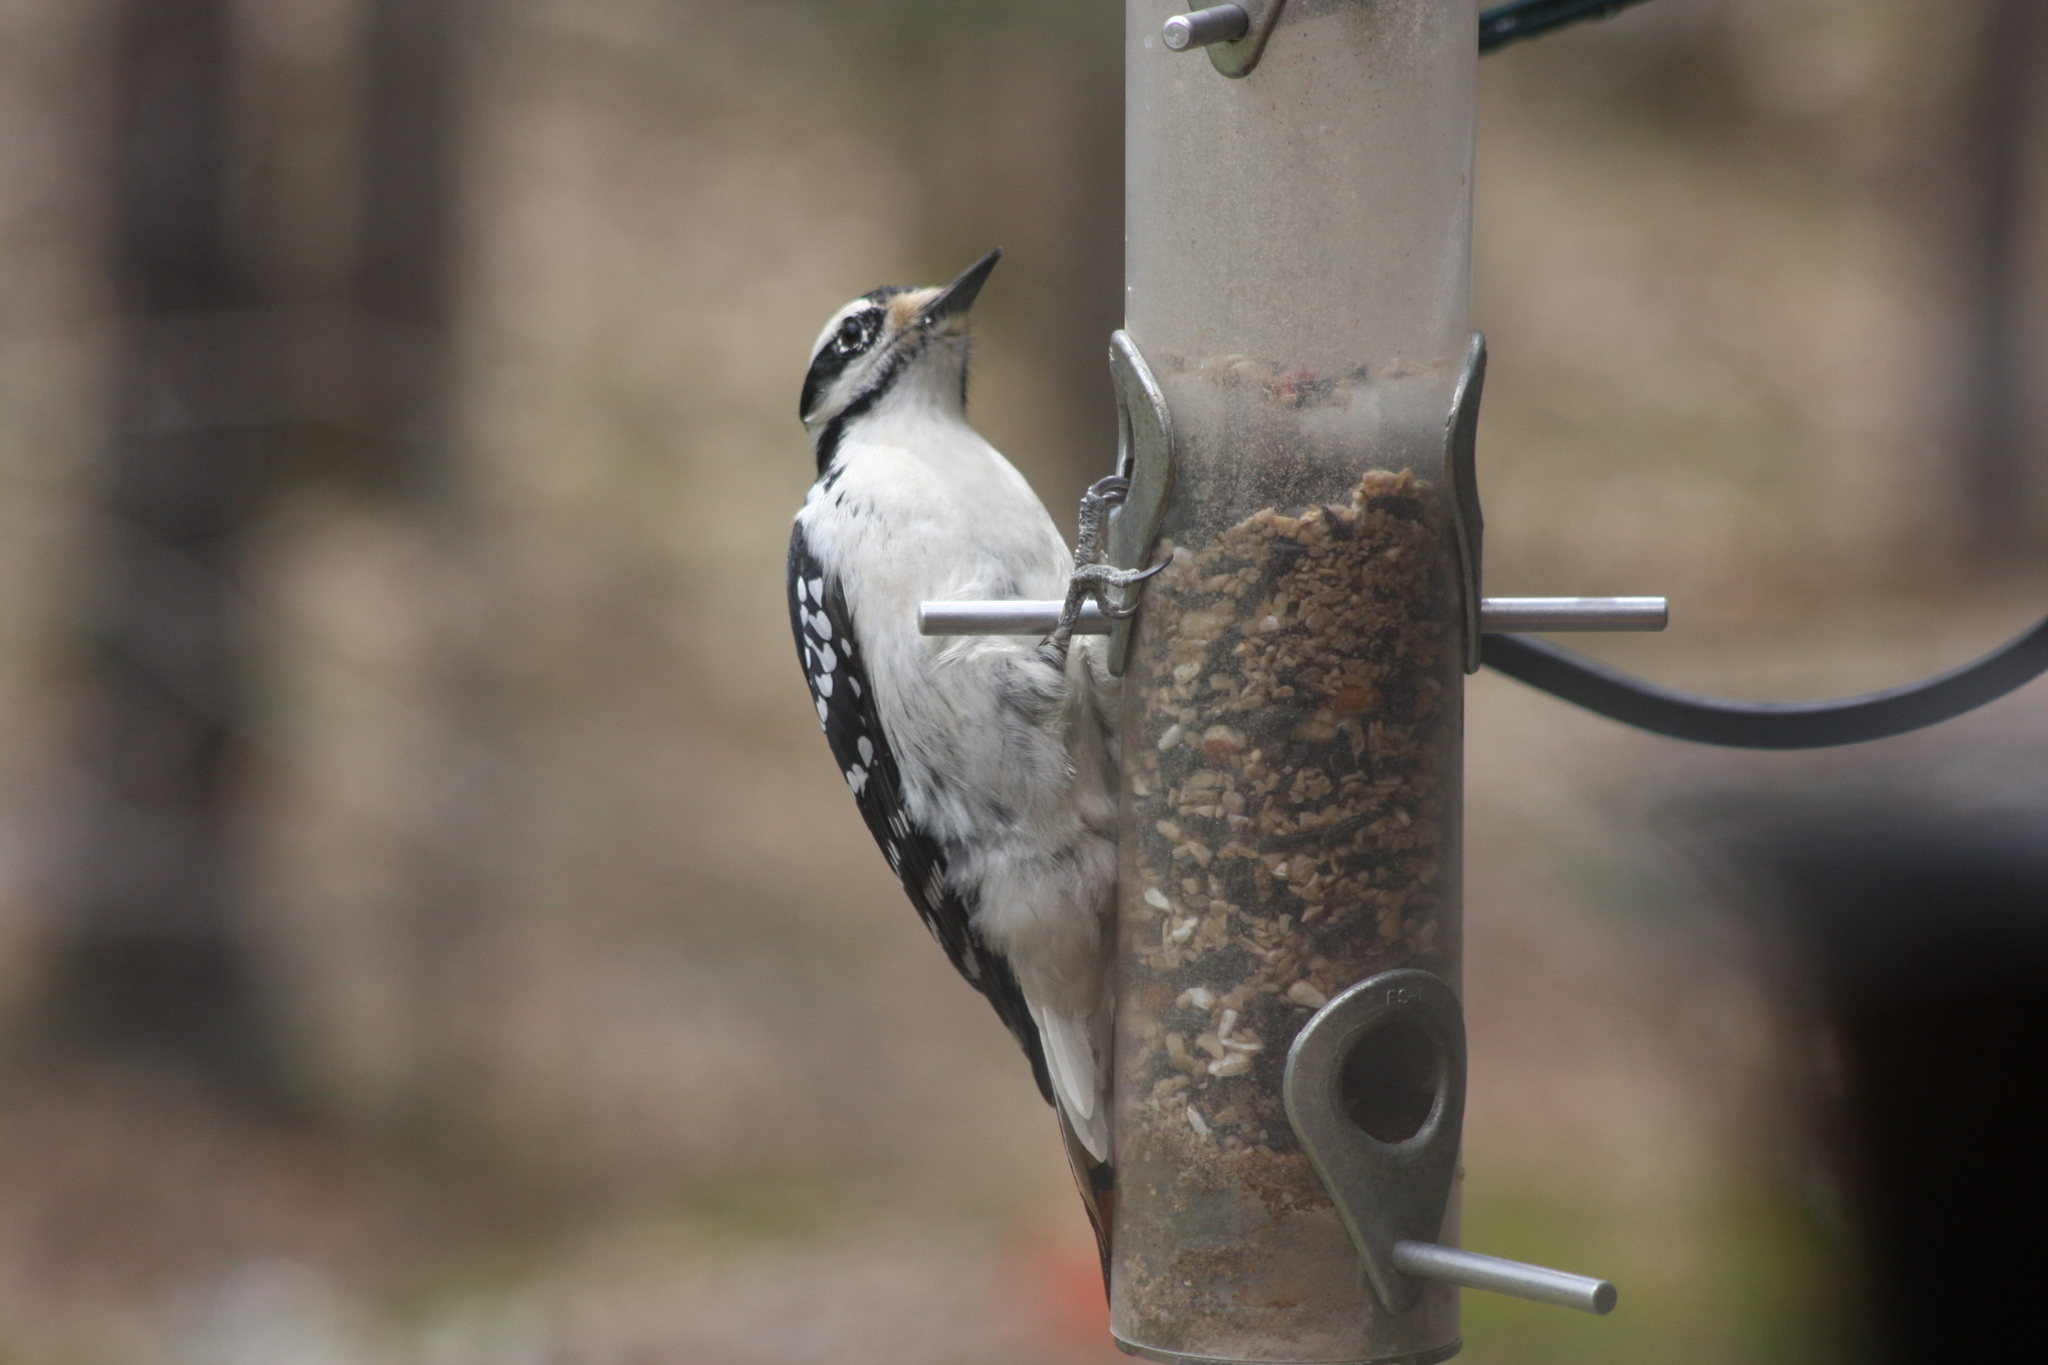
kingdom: Animalia
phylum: Chordata
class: Aves
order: Piciformes
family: Picidae
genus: Leuconotopicus
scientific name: Leuconotopicus villosus
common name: Hairy woodpecker
